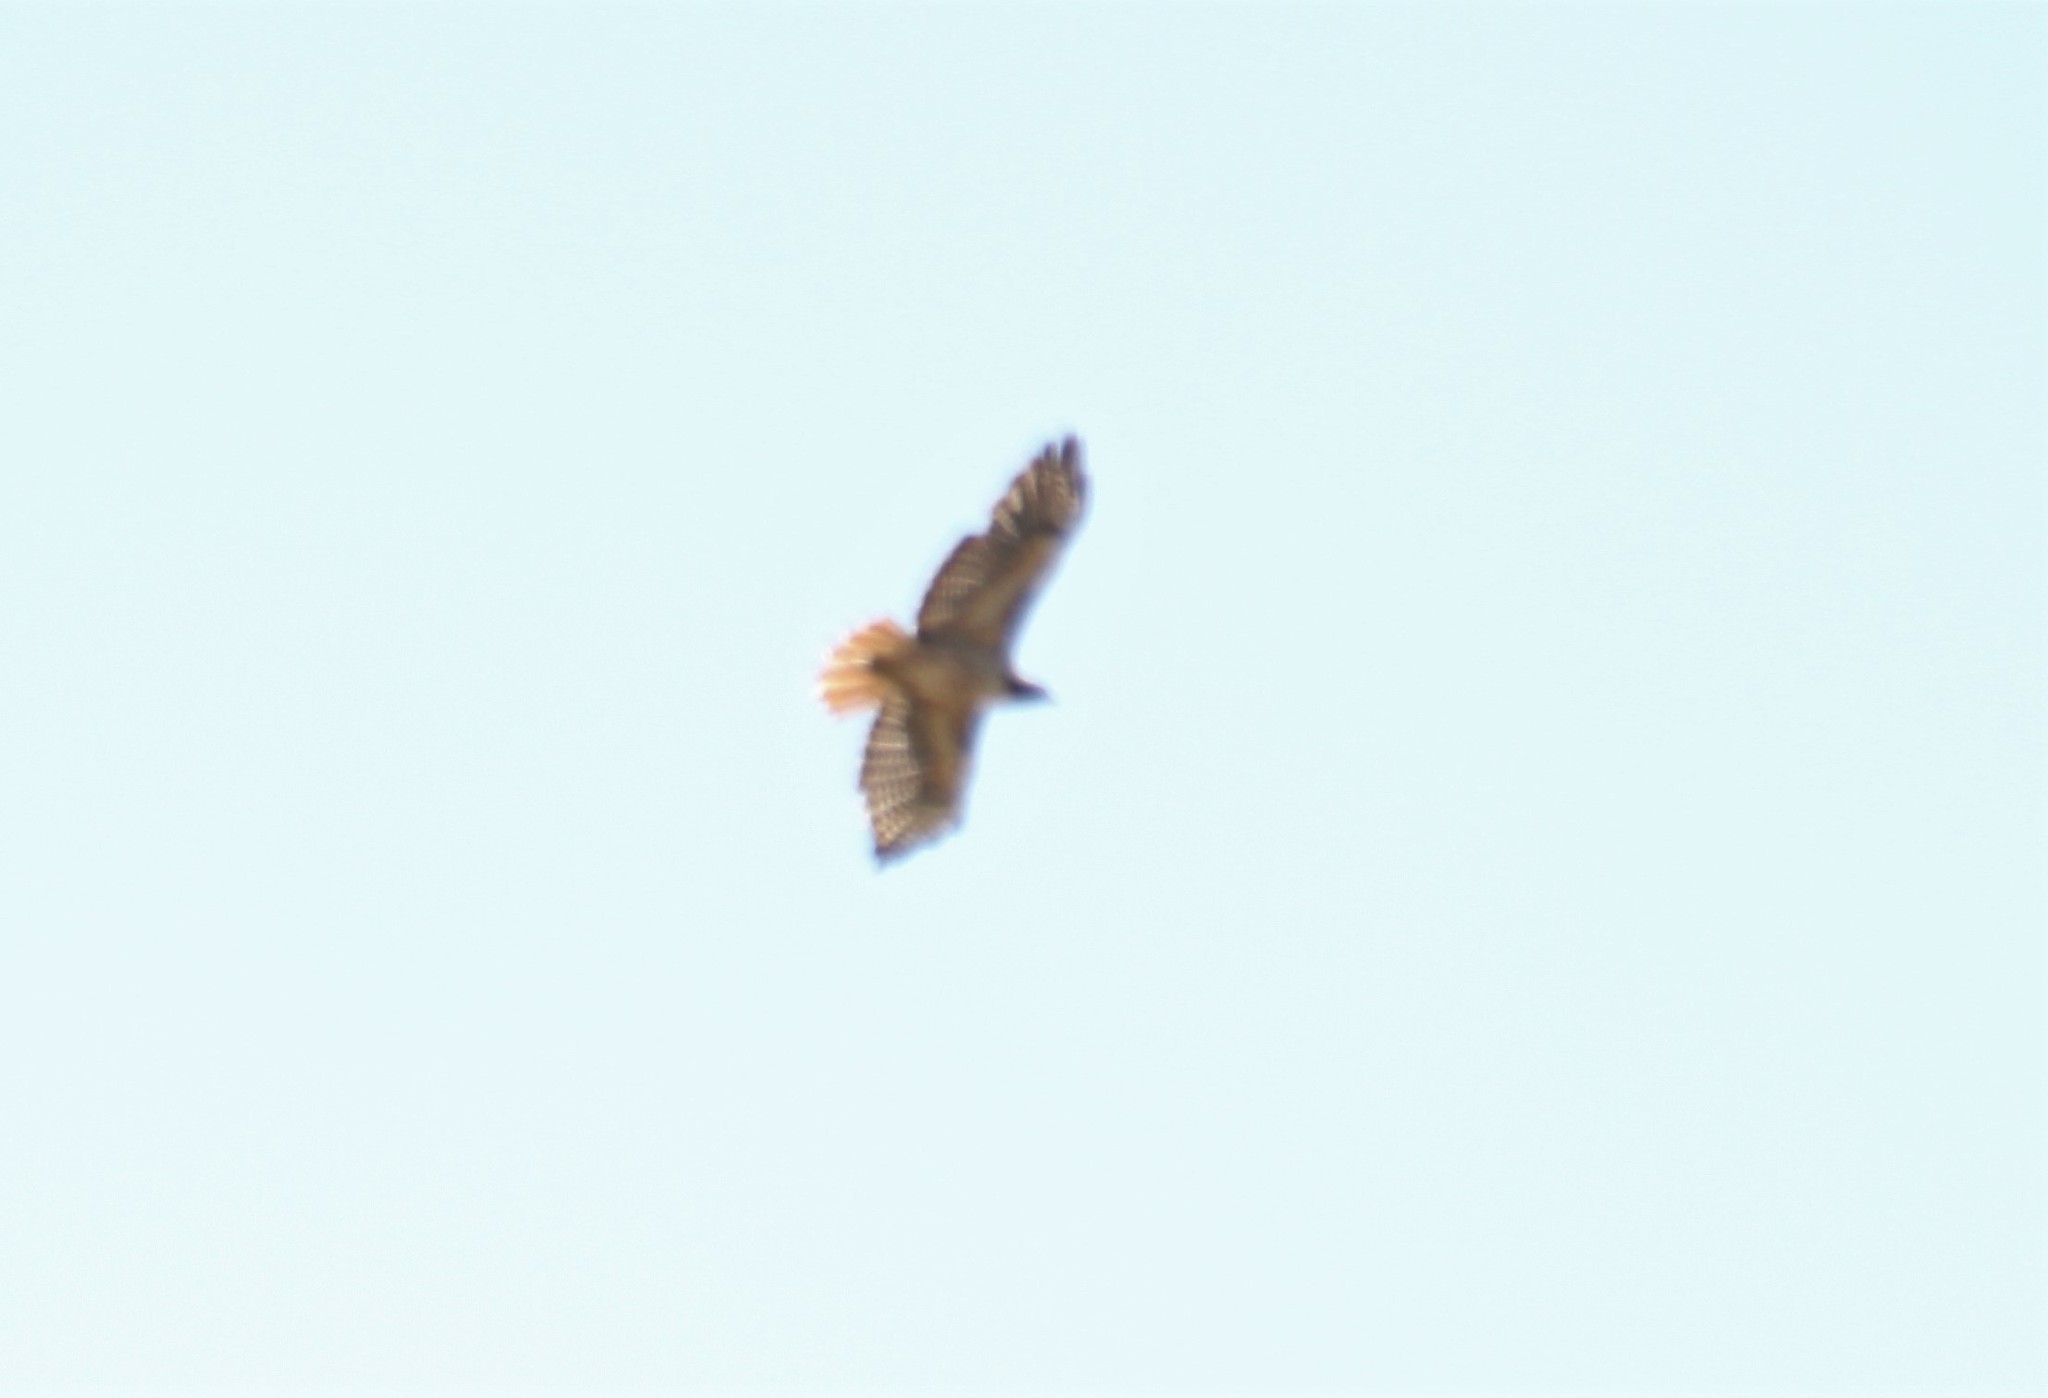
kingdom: Animalia
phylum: Chordata
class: Aves
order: Accipitriformes
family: Accipitridae
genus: Buteo
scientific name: Buteo jamaicensis
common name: Red-tailed hawk
